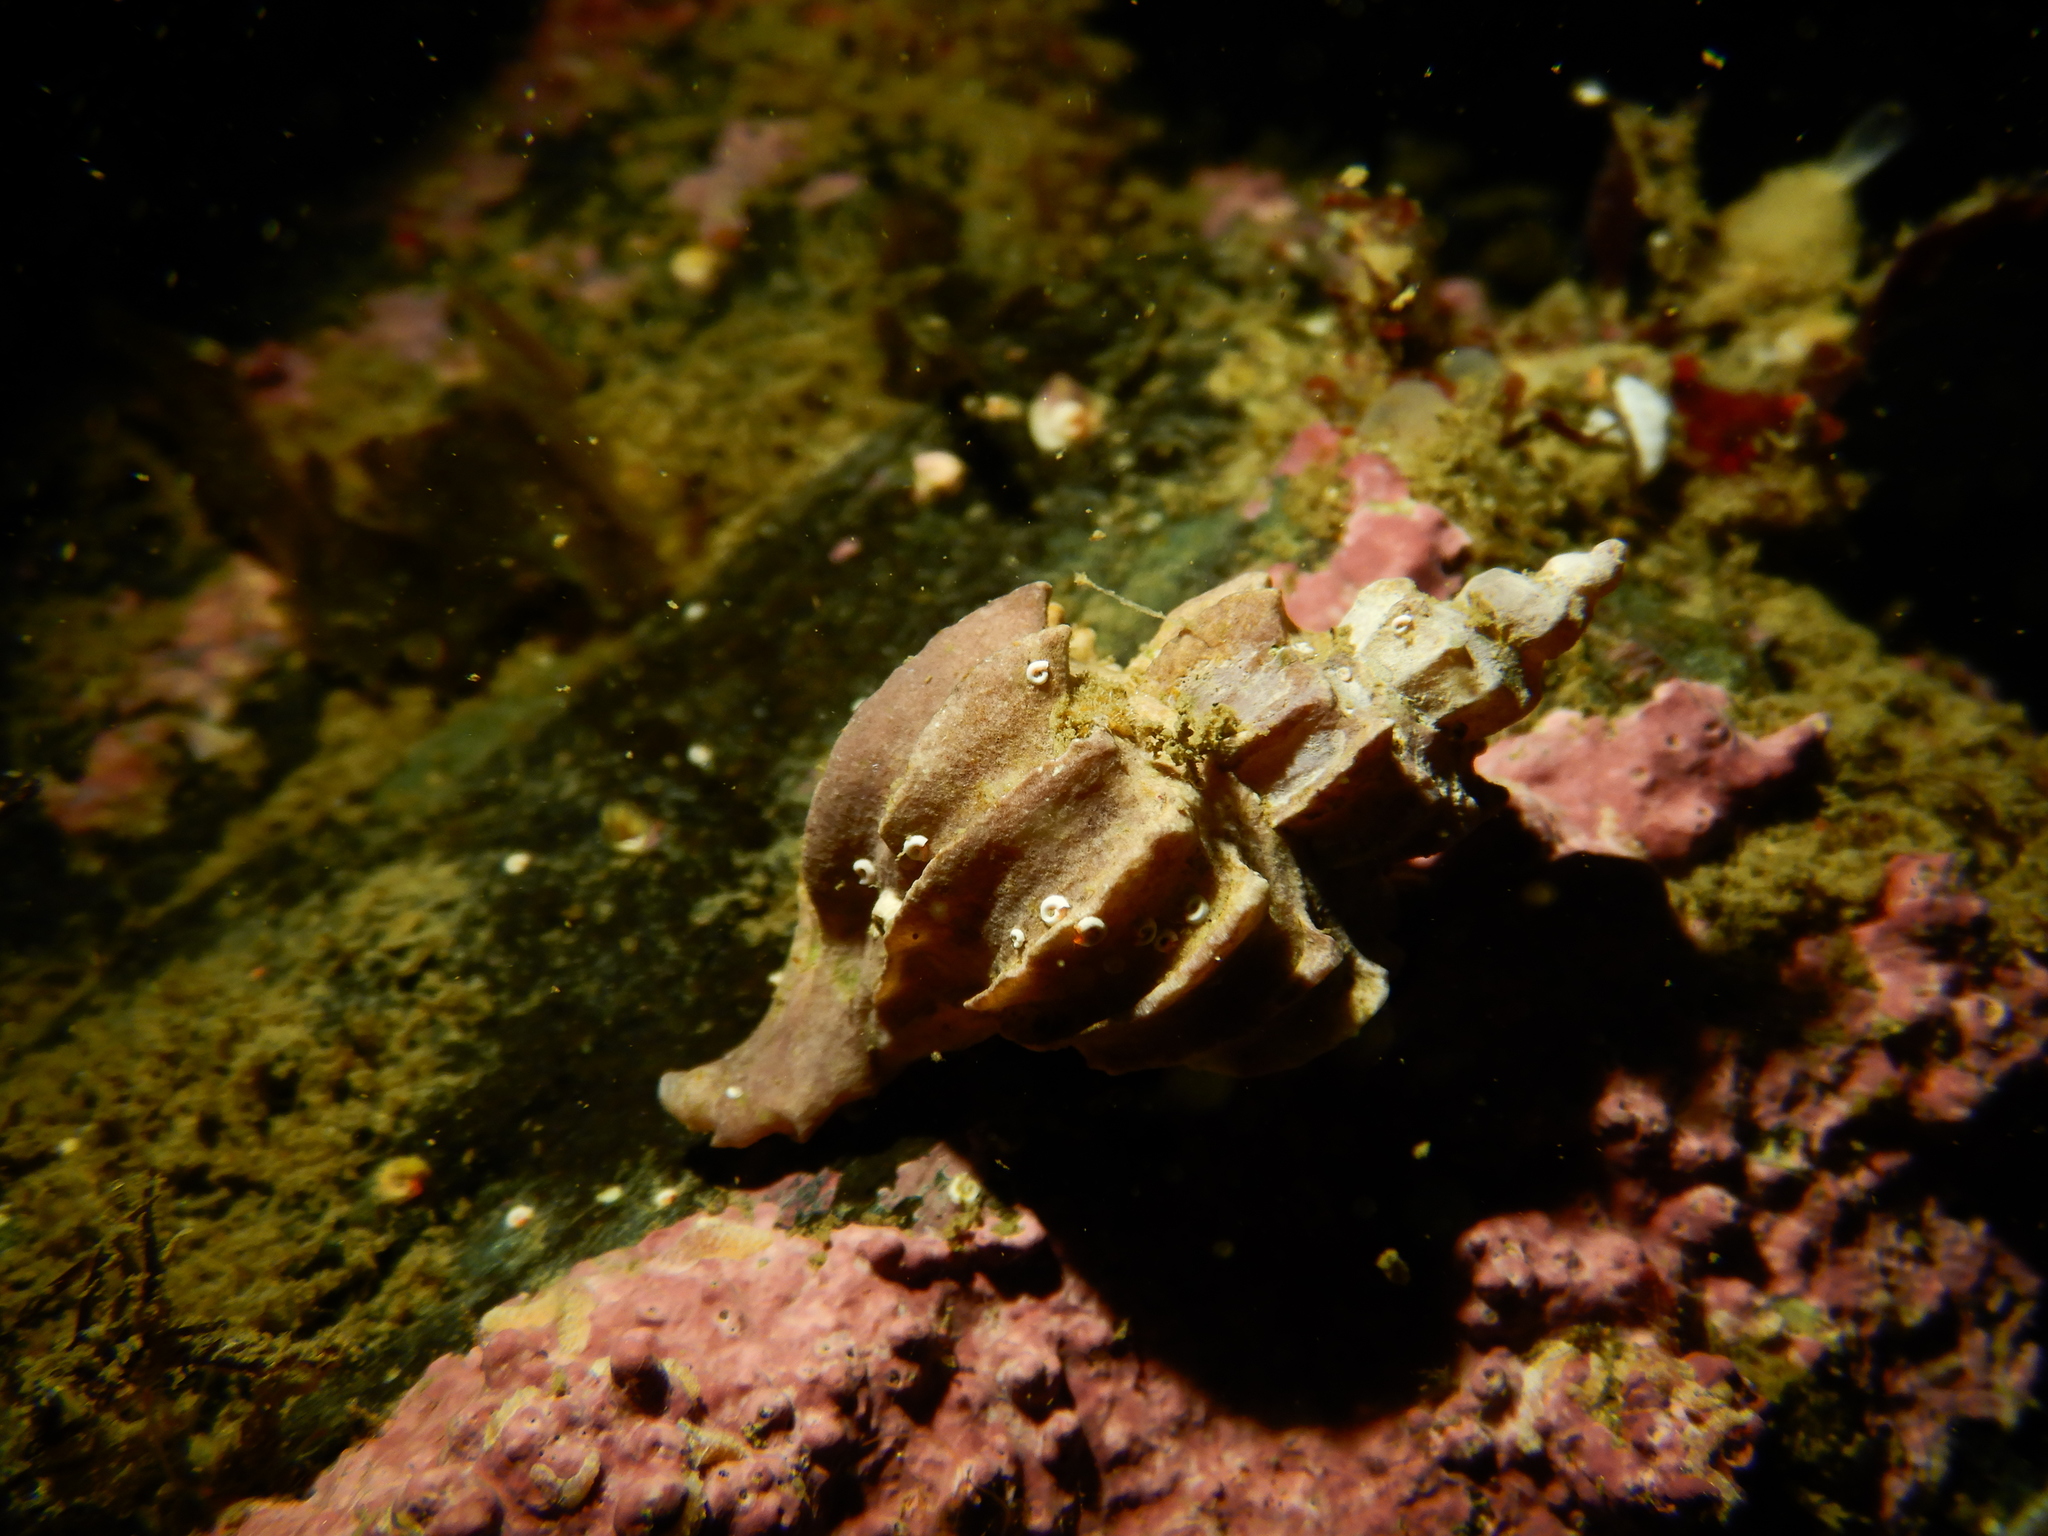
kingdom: Animalia
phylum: Mollusca
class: Gastropoda
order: Neogastropoda
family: Muricidae
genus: Trophon
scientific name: Trophon plicatus
